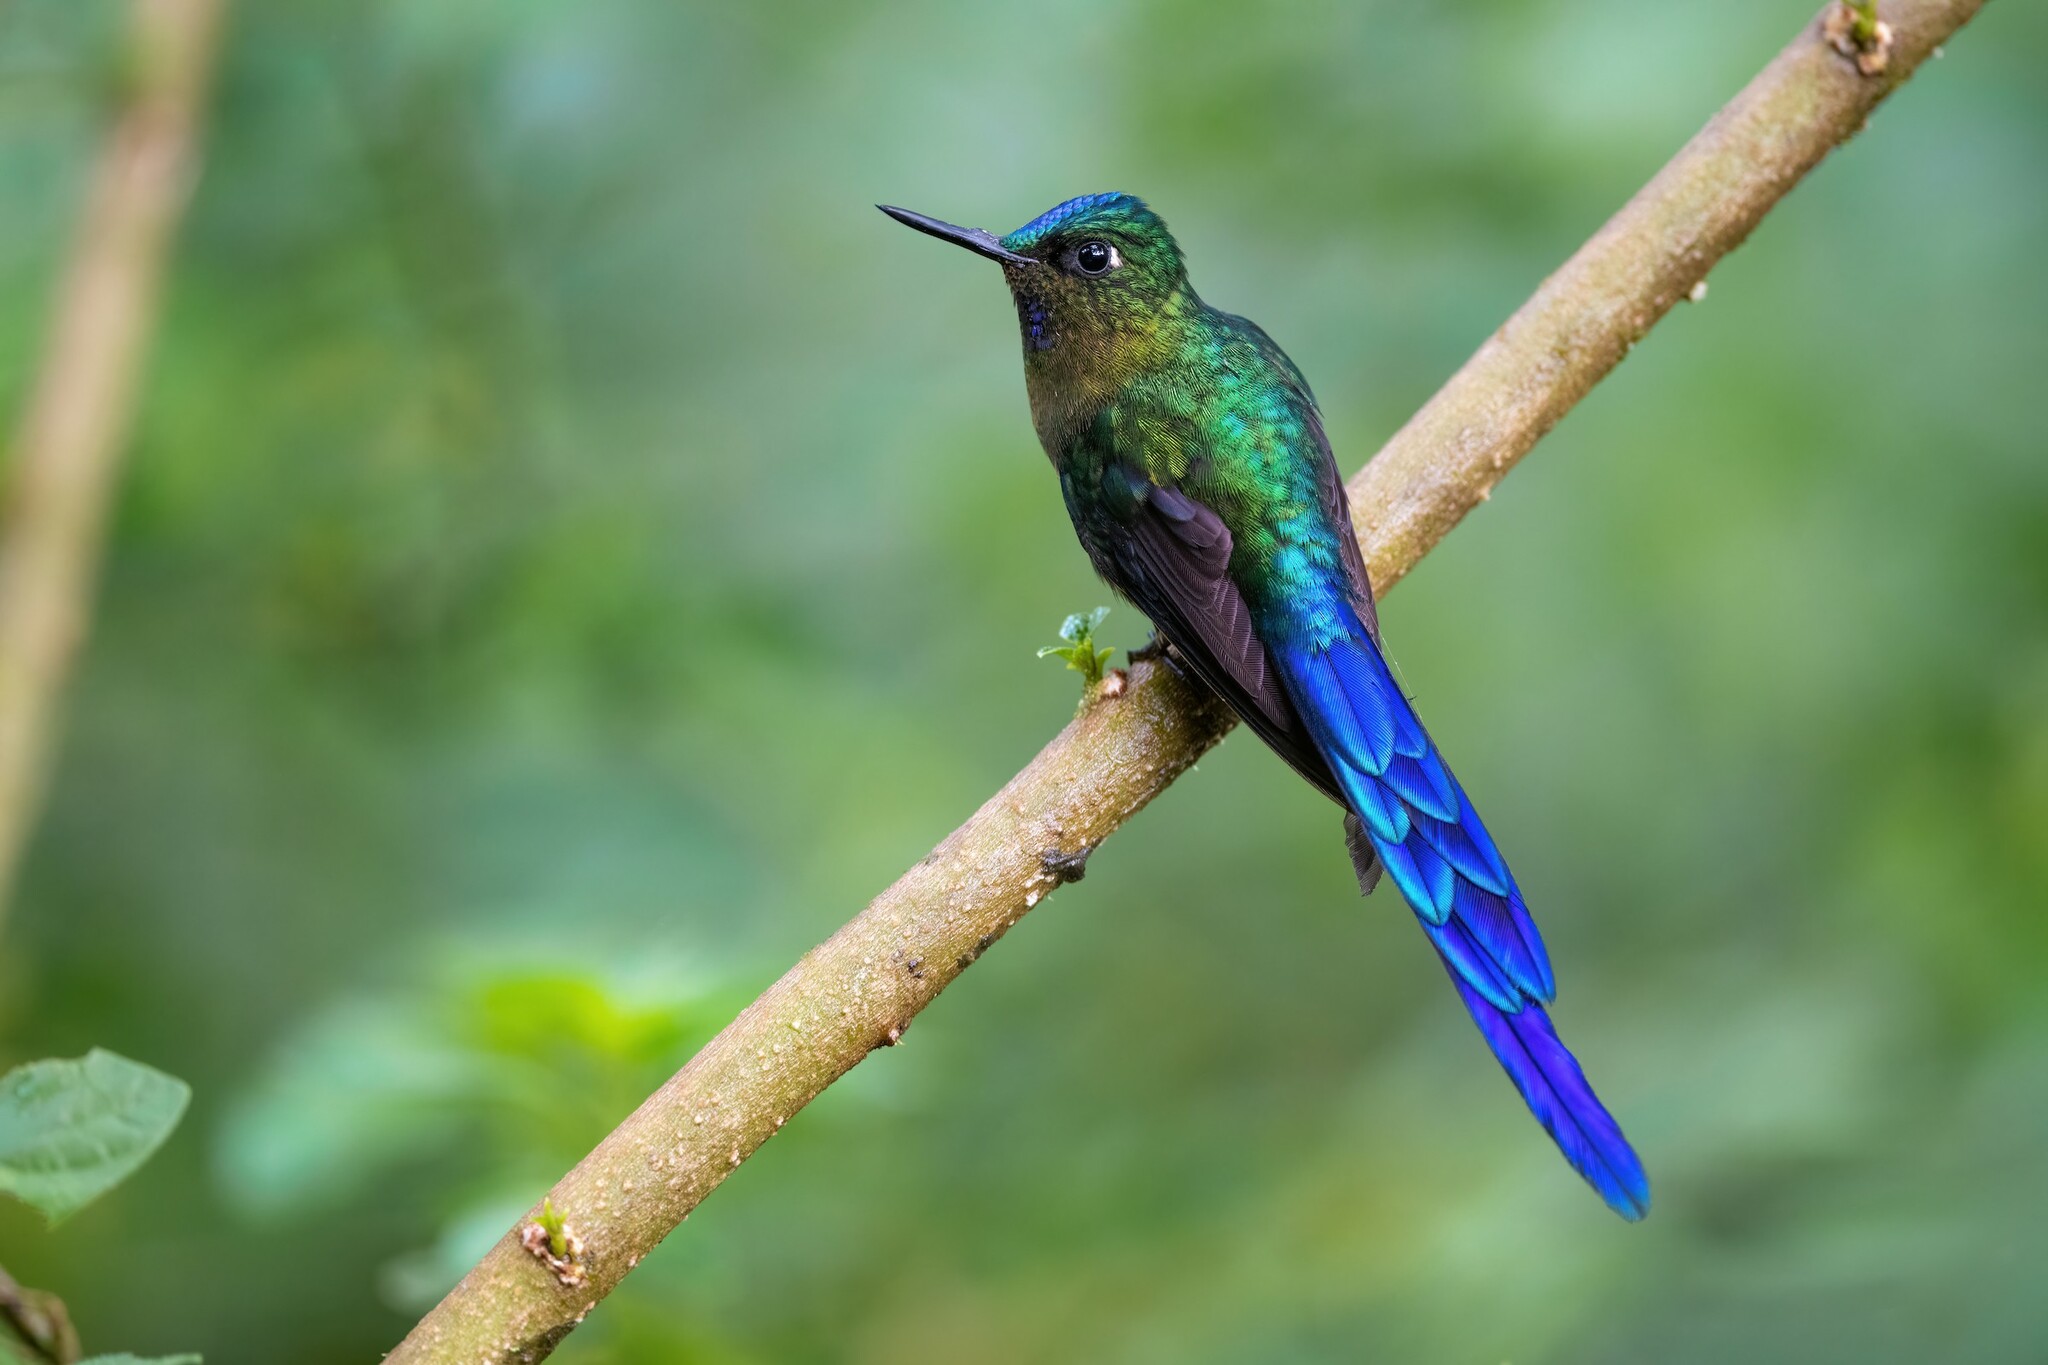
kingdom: Animalia
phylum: Chordata
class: Aves
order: Apodiformes
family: Trochilidae
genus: Aglaiocercus
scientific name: Aglaiocercus coelestis
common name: Violet-tailed sylph
